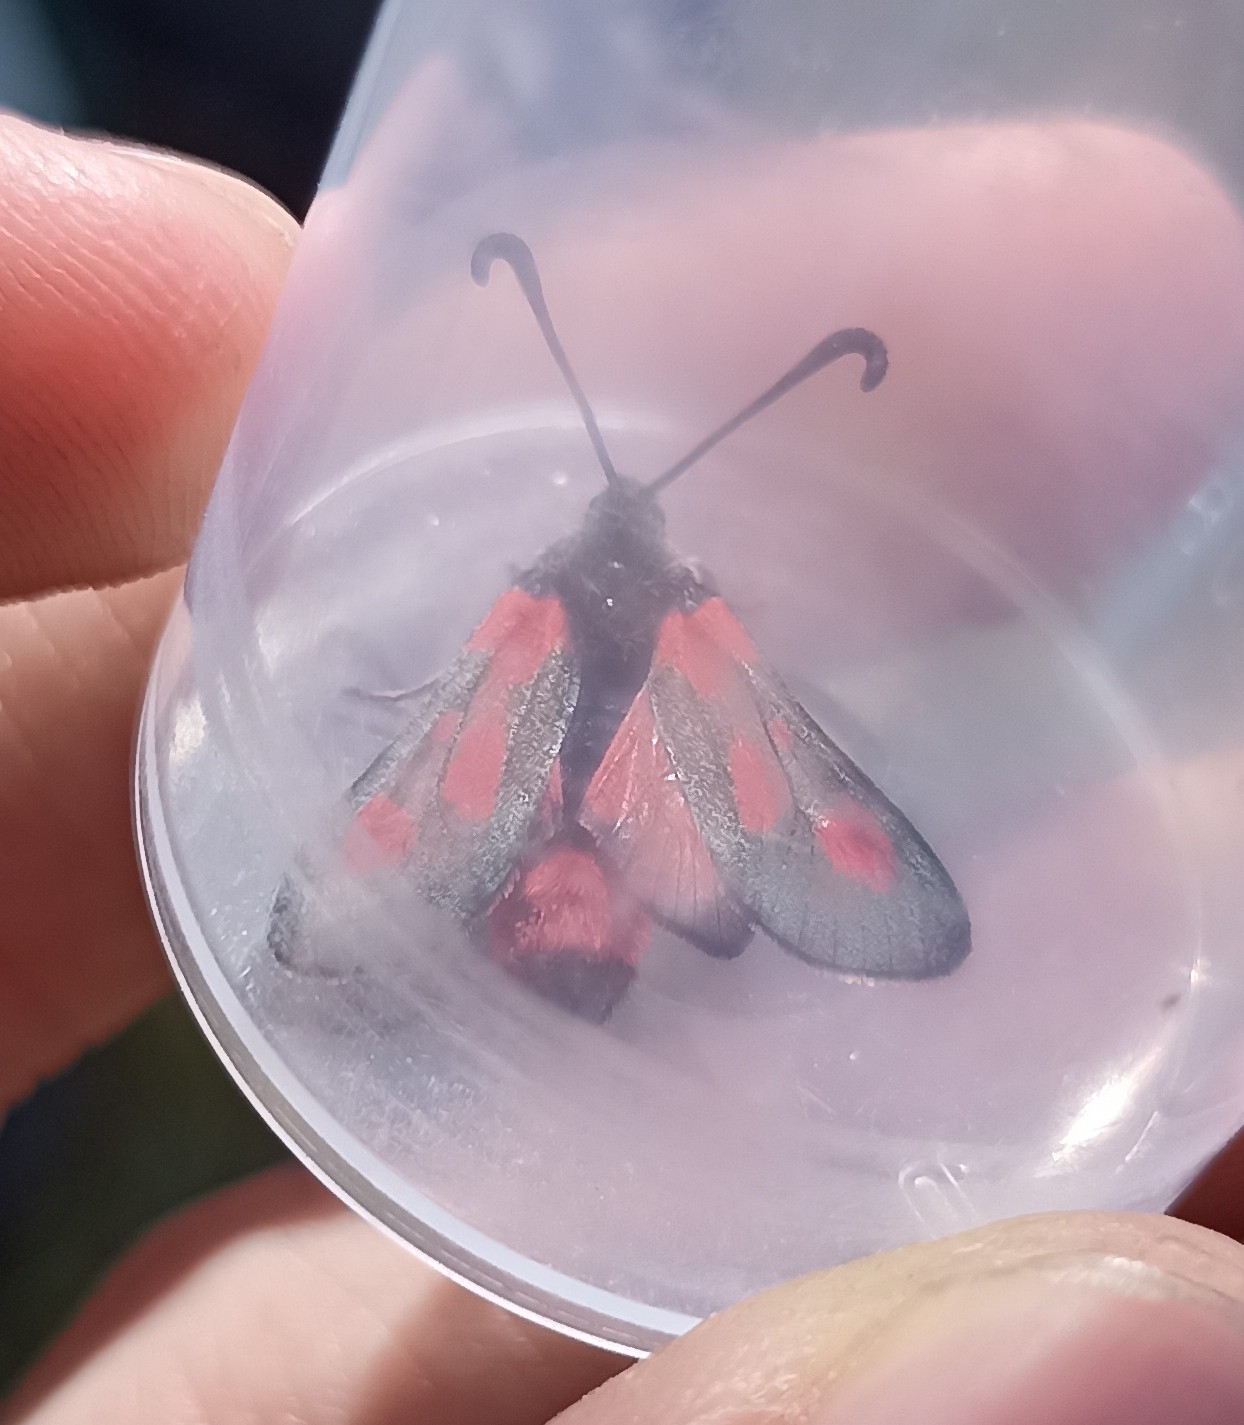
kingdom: Animalia
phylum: Arthropoda
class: Insecta
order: Lepidoptera
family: Zygaenidae
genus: Zygaena
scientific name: Zygaena sarpedon
